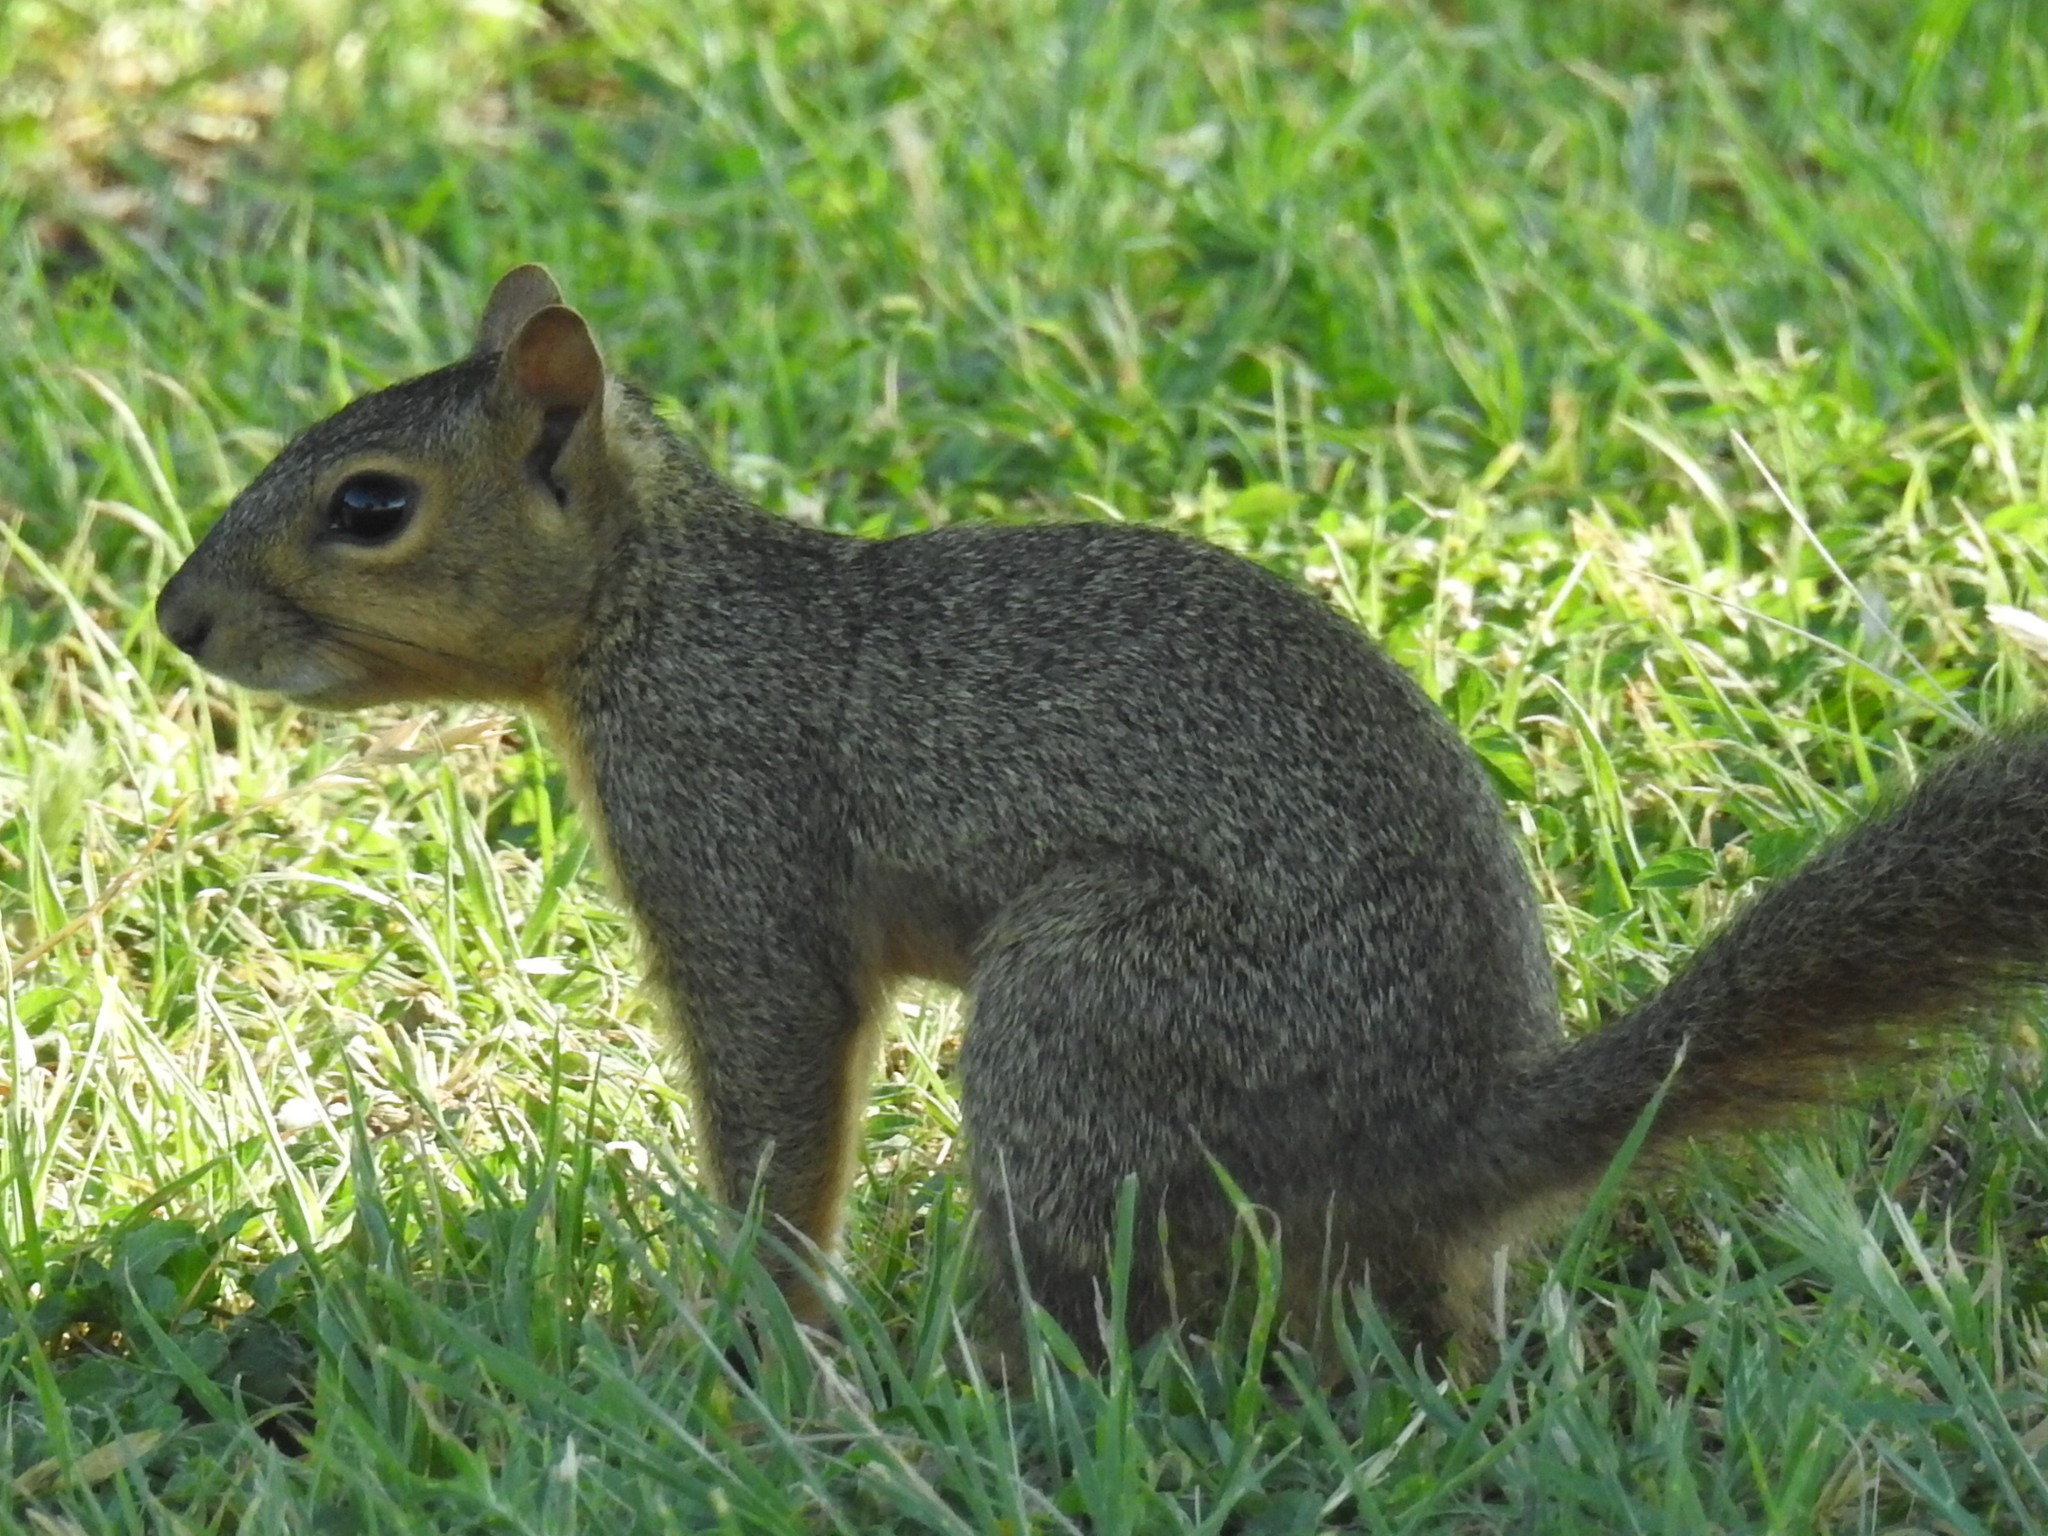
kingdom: Animalia
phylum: Chordata
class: Mammalia
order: Rodentia
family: Sciuridae
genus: Sciurus
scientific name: Sciurus niger
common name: Fox squirrel
